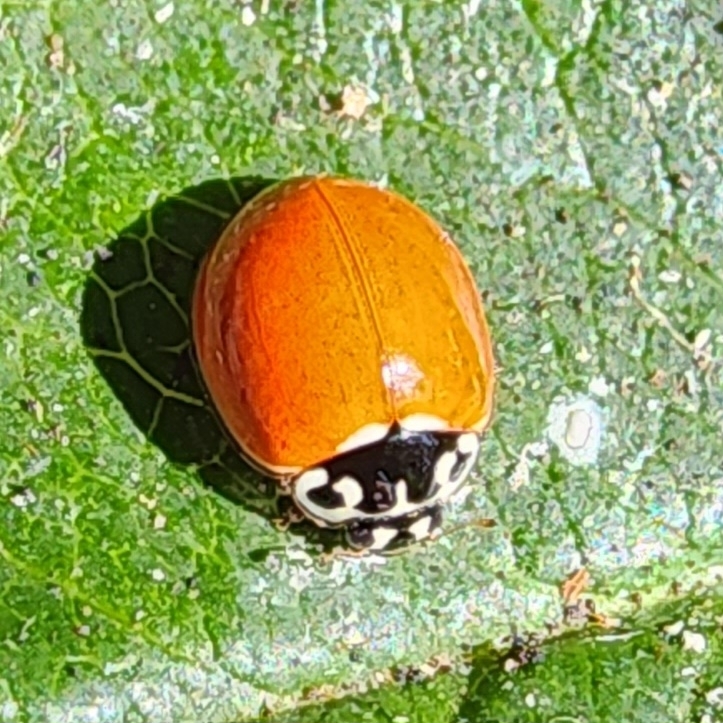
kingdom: Animalia
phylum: Arthropoda
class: Insecta
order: Coleoptera
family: Coccinellidae
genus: Cycloneda
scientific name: Cycloneda polita
